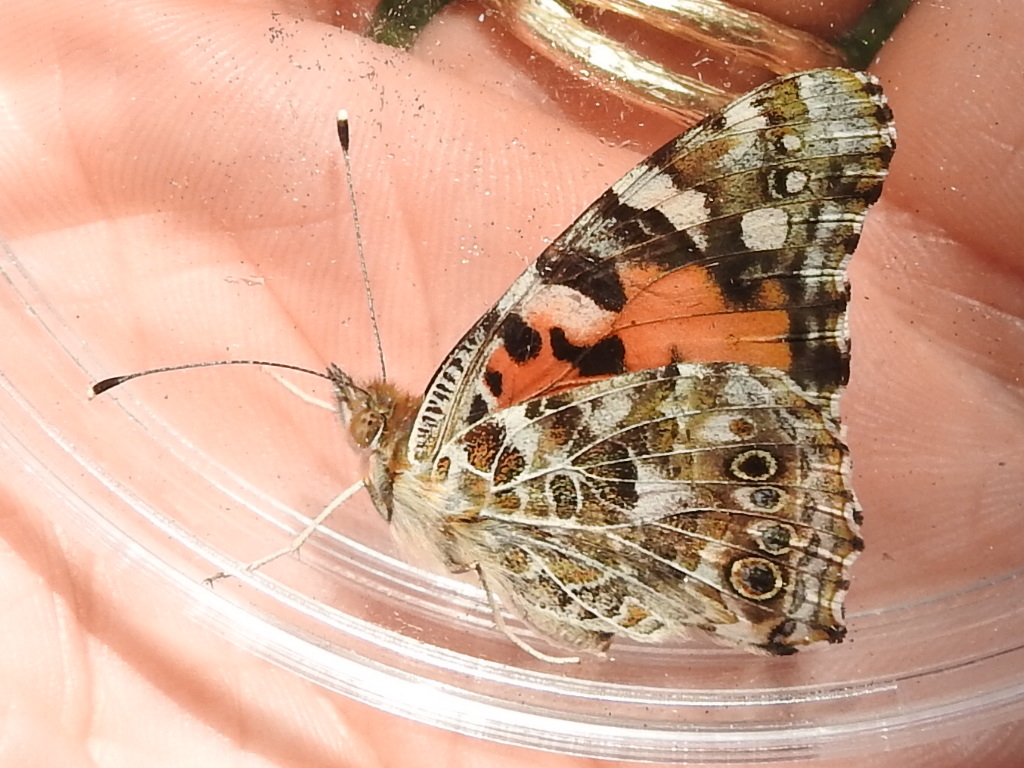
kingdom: Animalia
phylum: Arthropoda
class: Insecta
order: Lepidoptera
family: Nymphalidae
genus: Vanessa
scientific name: Vanessa cardui
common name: Painted lady
